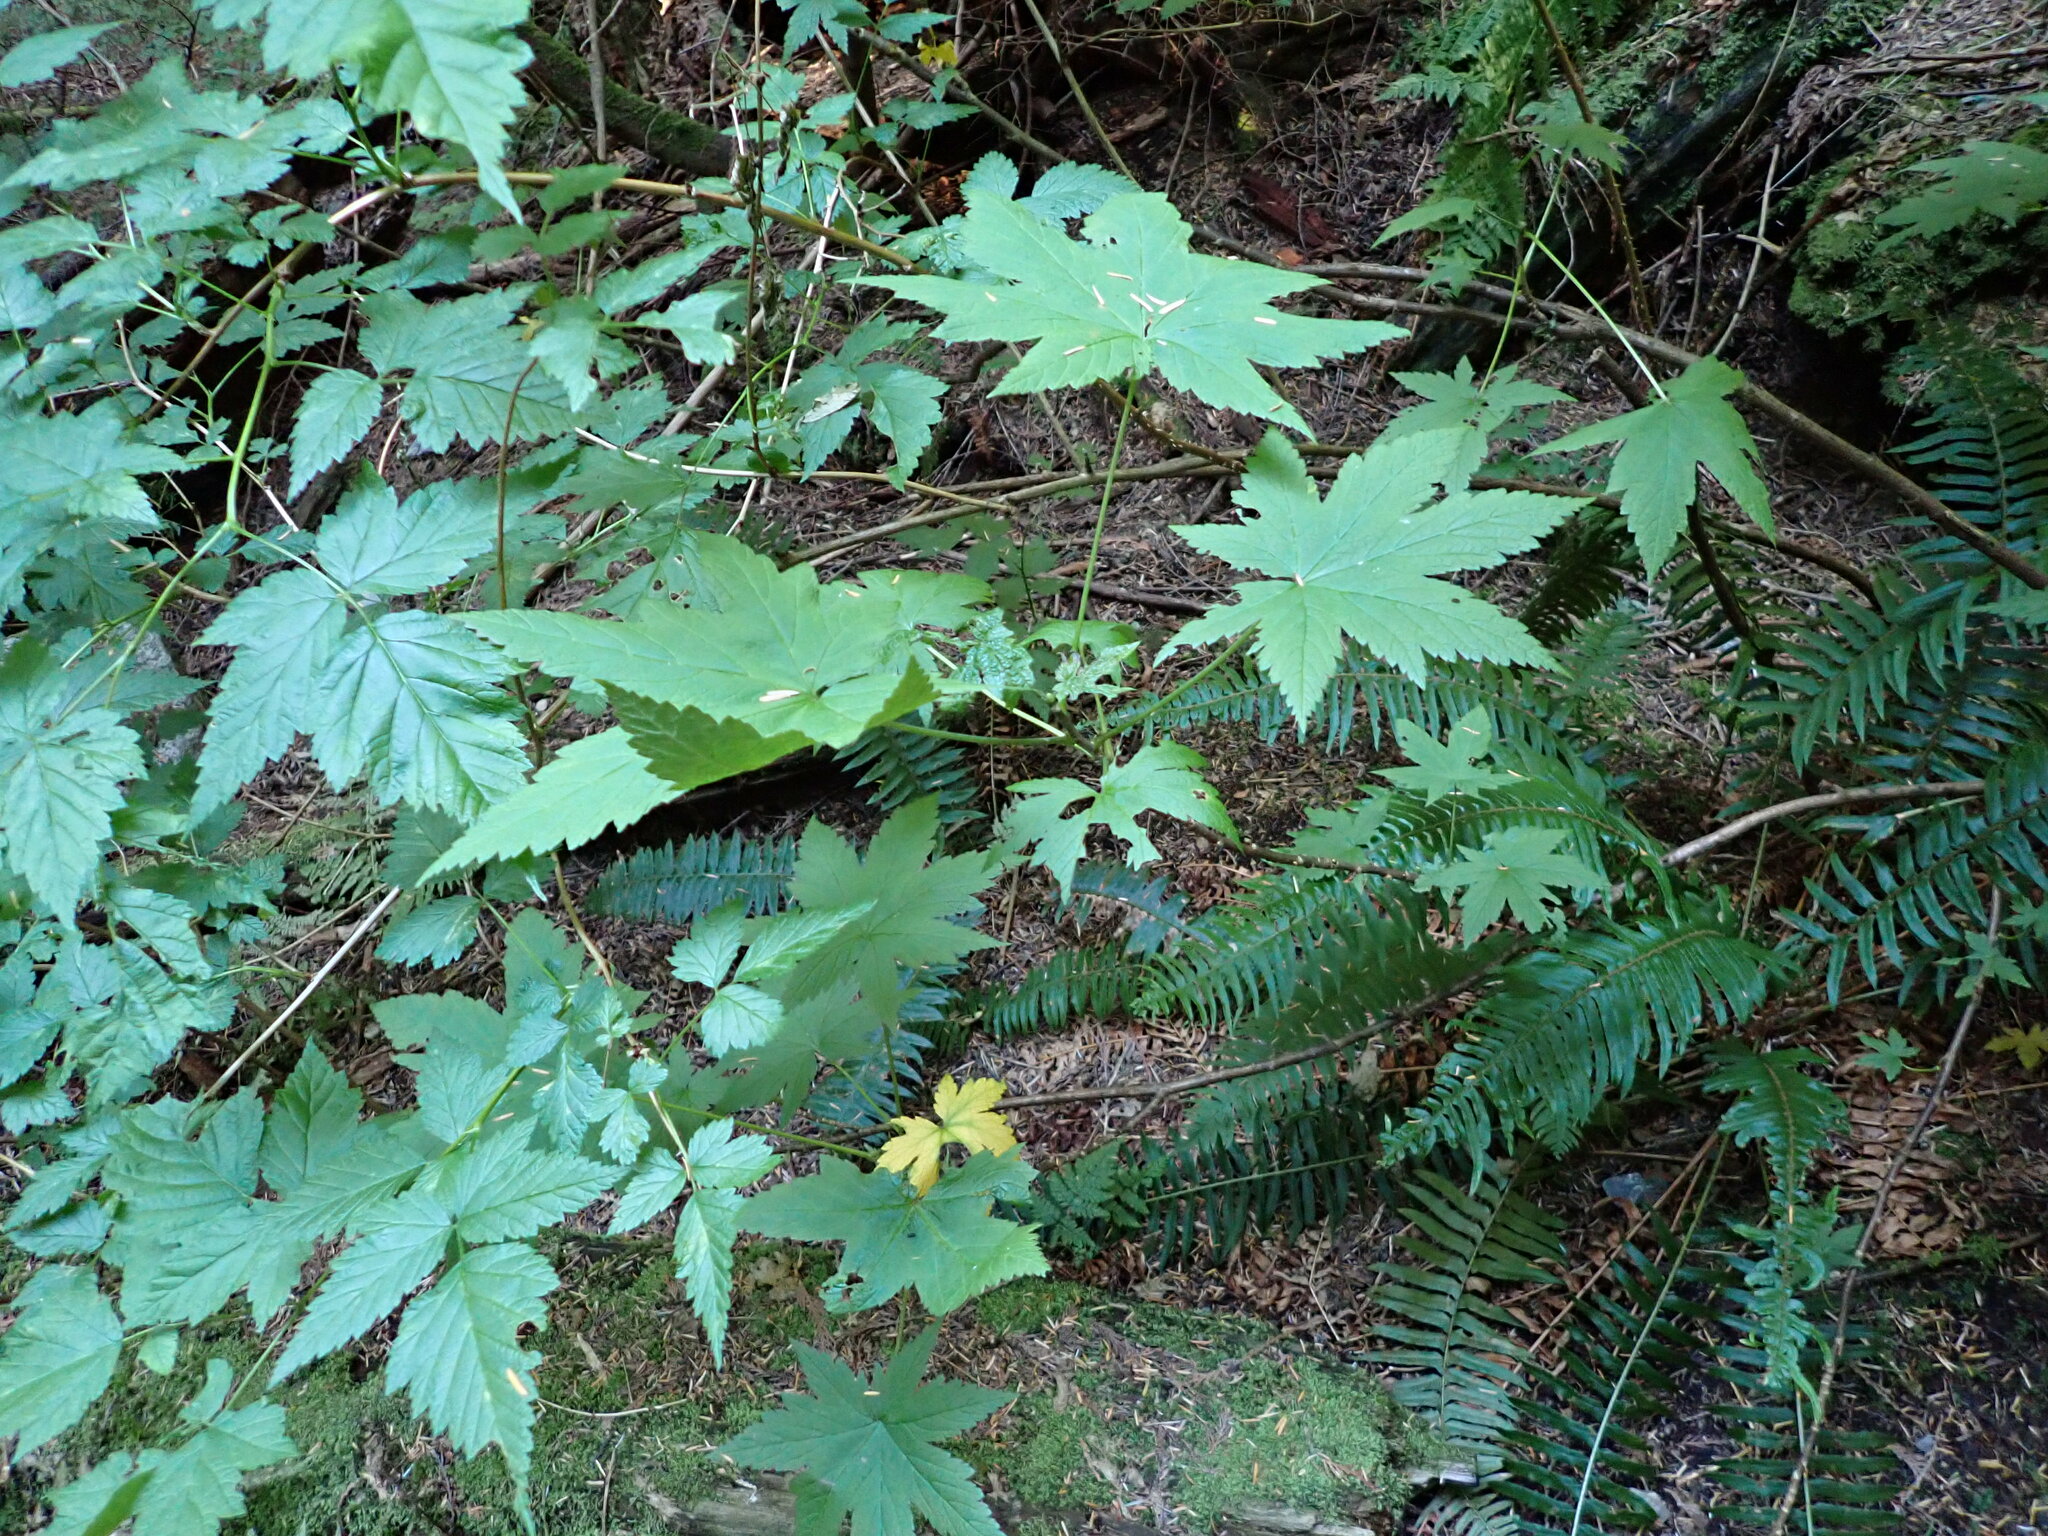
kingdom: Plantae
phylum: Tracheophyta
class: Magnoliopsida
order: Saxifragales
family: Grossulariaceae
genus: Ribes
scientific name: Ribes bracteosum
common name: California black currant
